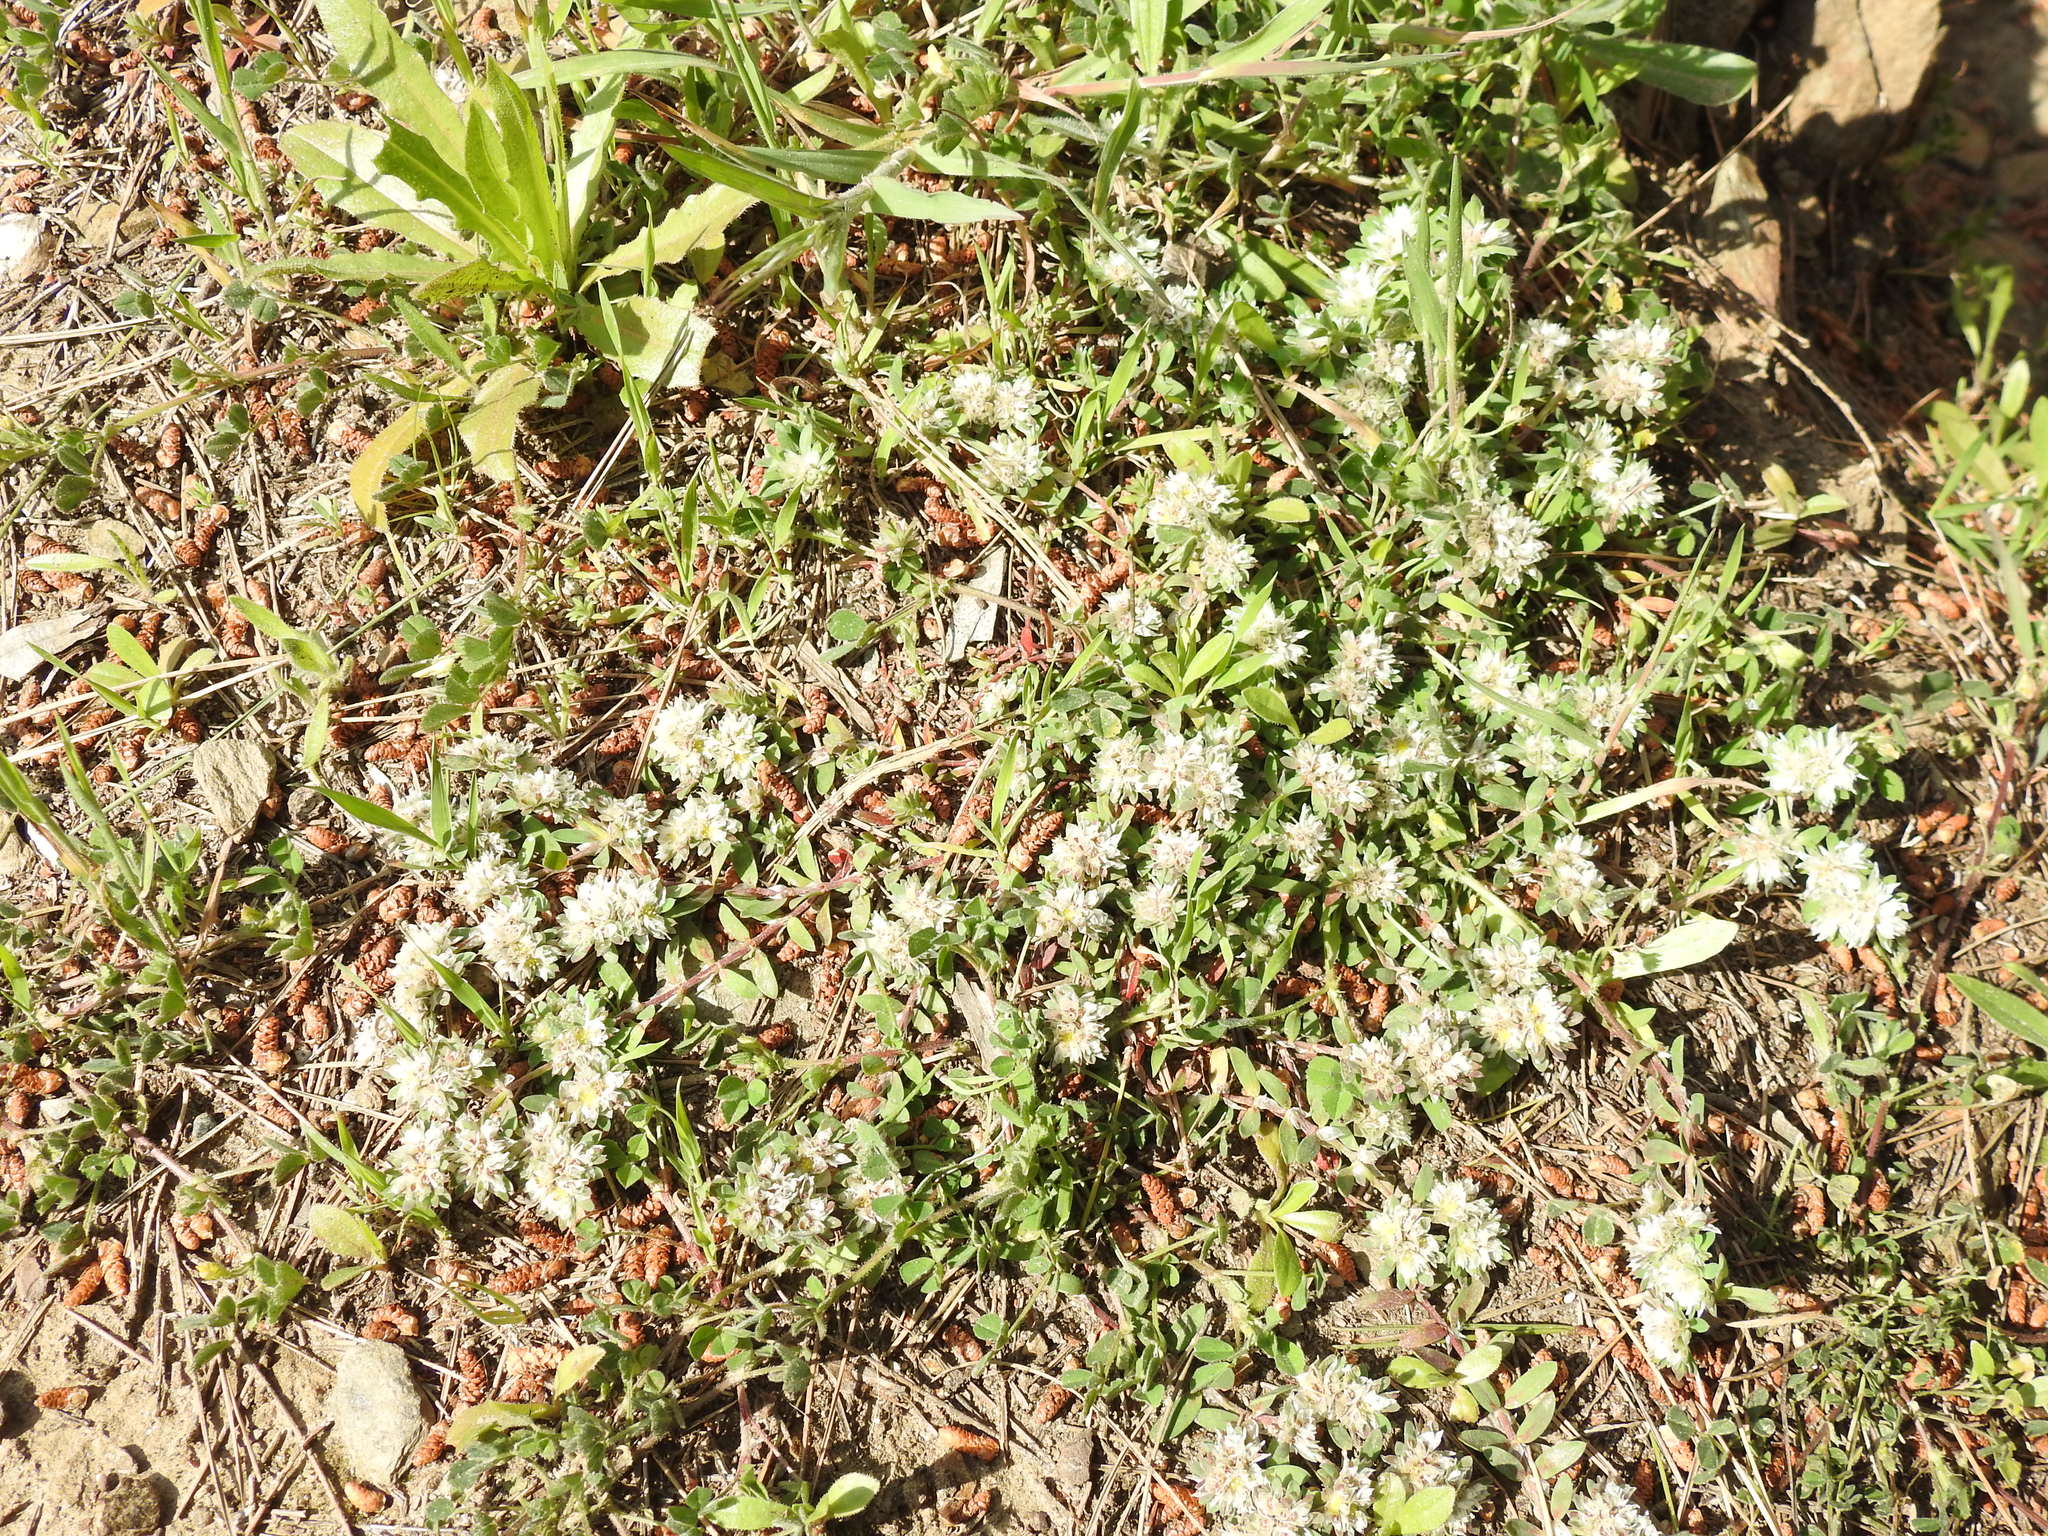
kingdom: Plantae
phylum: Tracheophyta
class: Magnoliopsida
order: Caryophyllales
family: Caryophyllaceae
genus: Paronychia
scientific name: Paronychia argentea
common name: Silver nailroot
